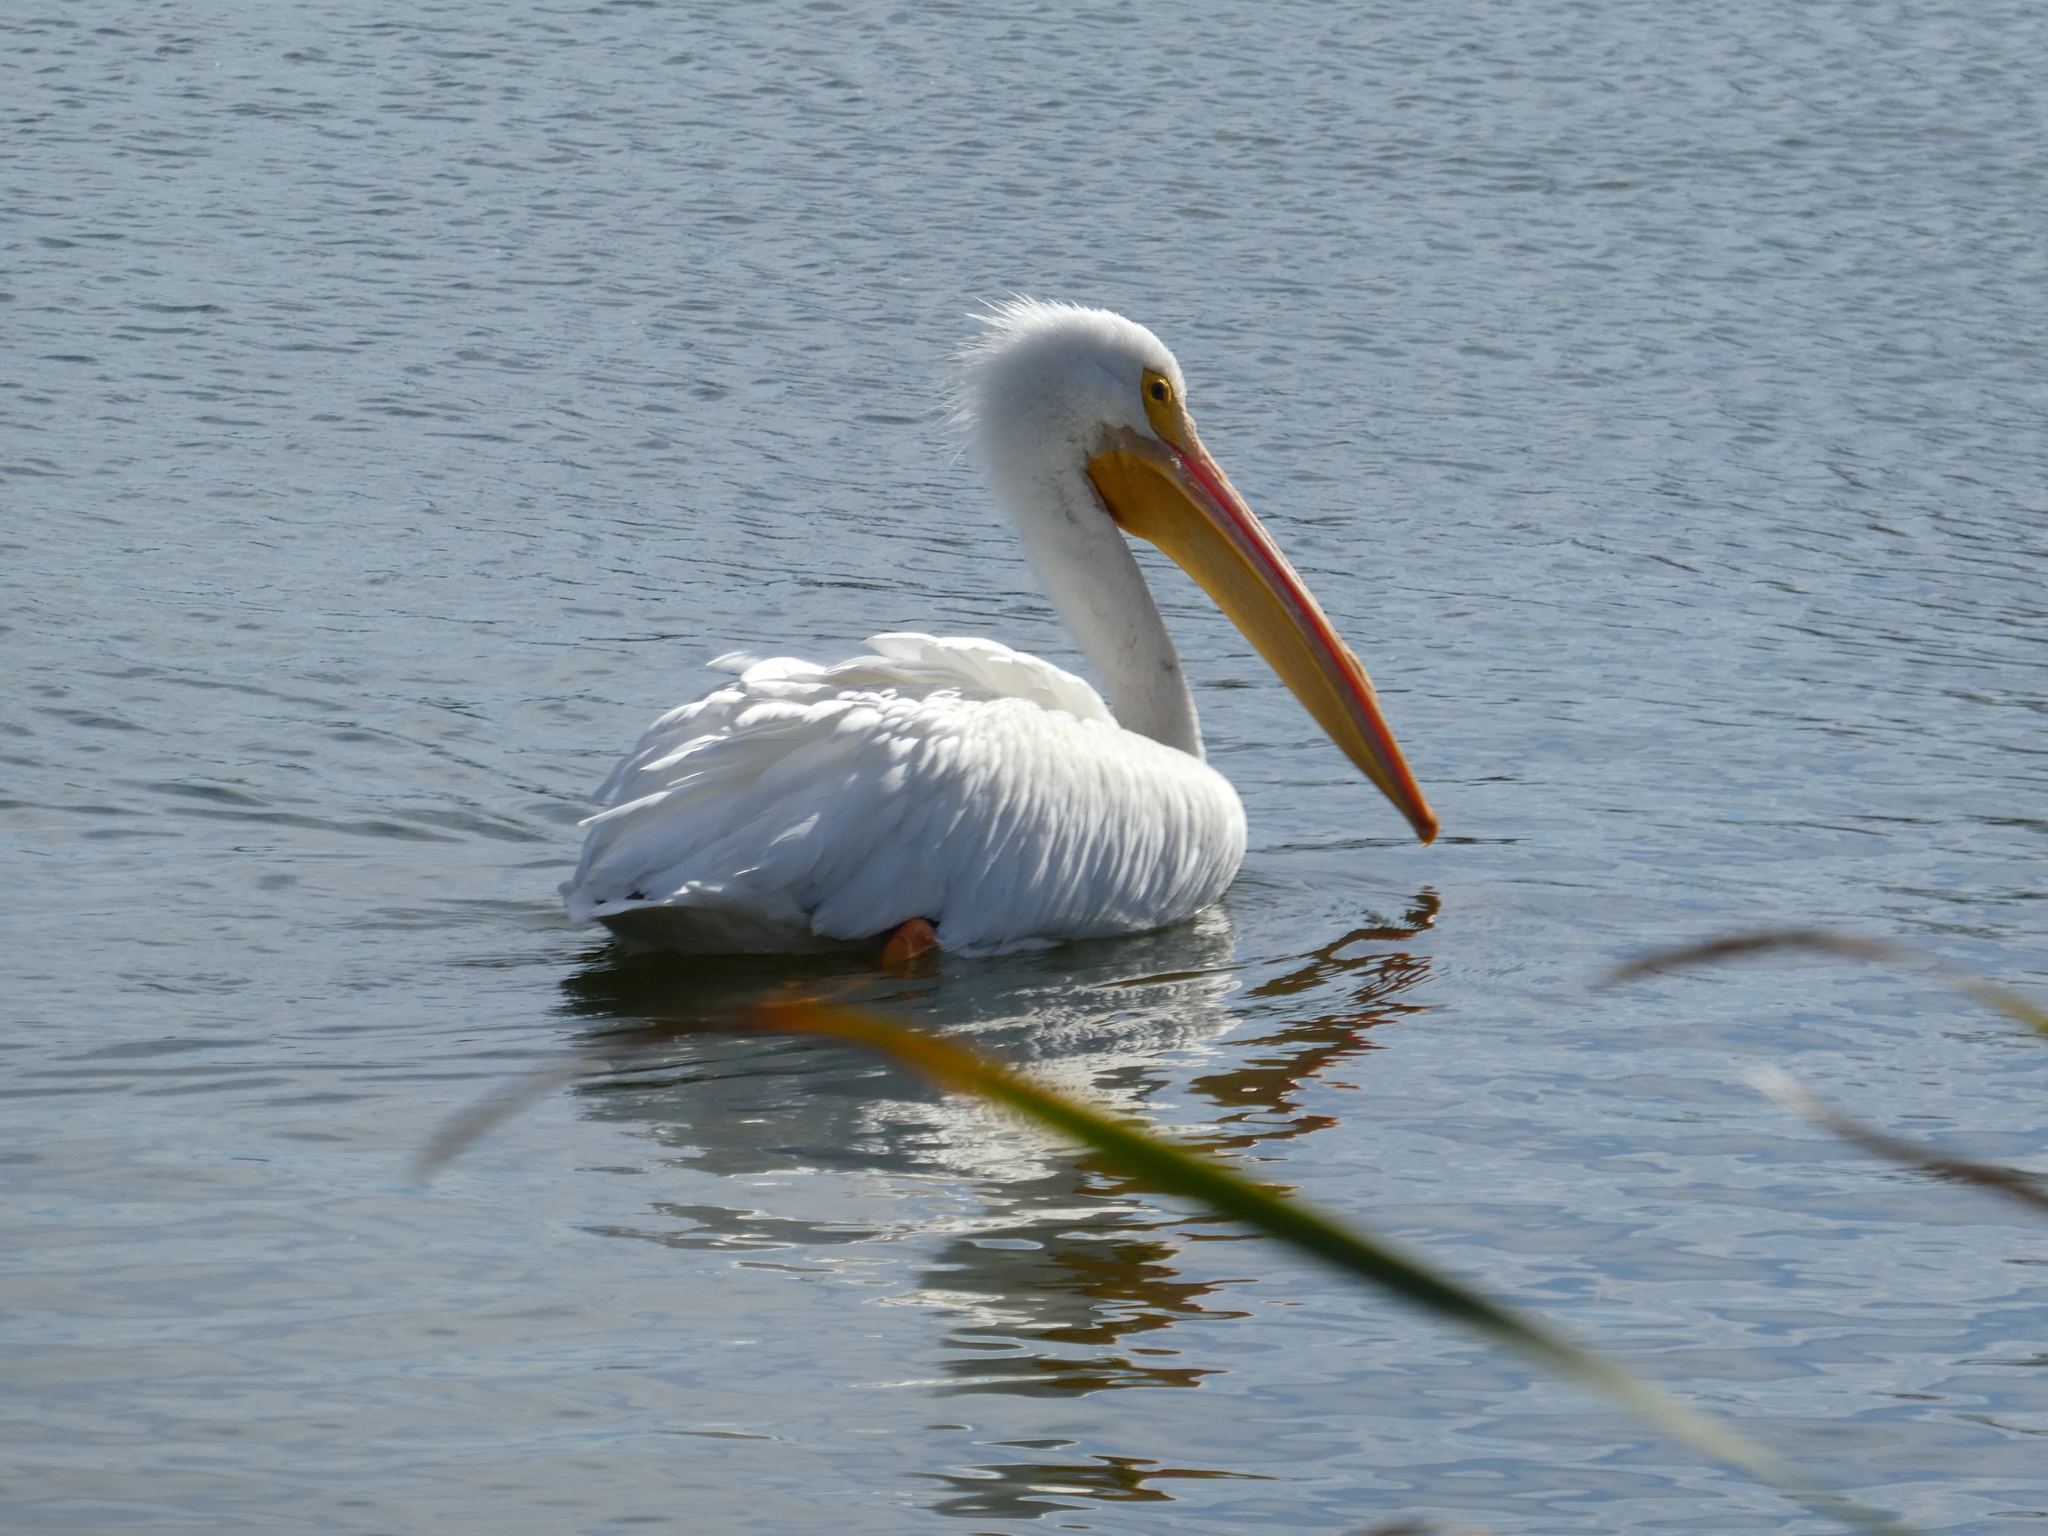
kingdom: Animalia
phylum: Chordata
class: Aves
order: Pelecaniformes
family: Pelecanidae
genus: Pelecanus
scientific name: Pelecanus erythrorhynchos
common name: American white pelican
